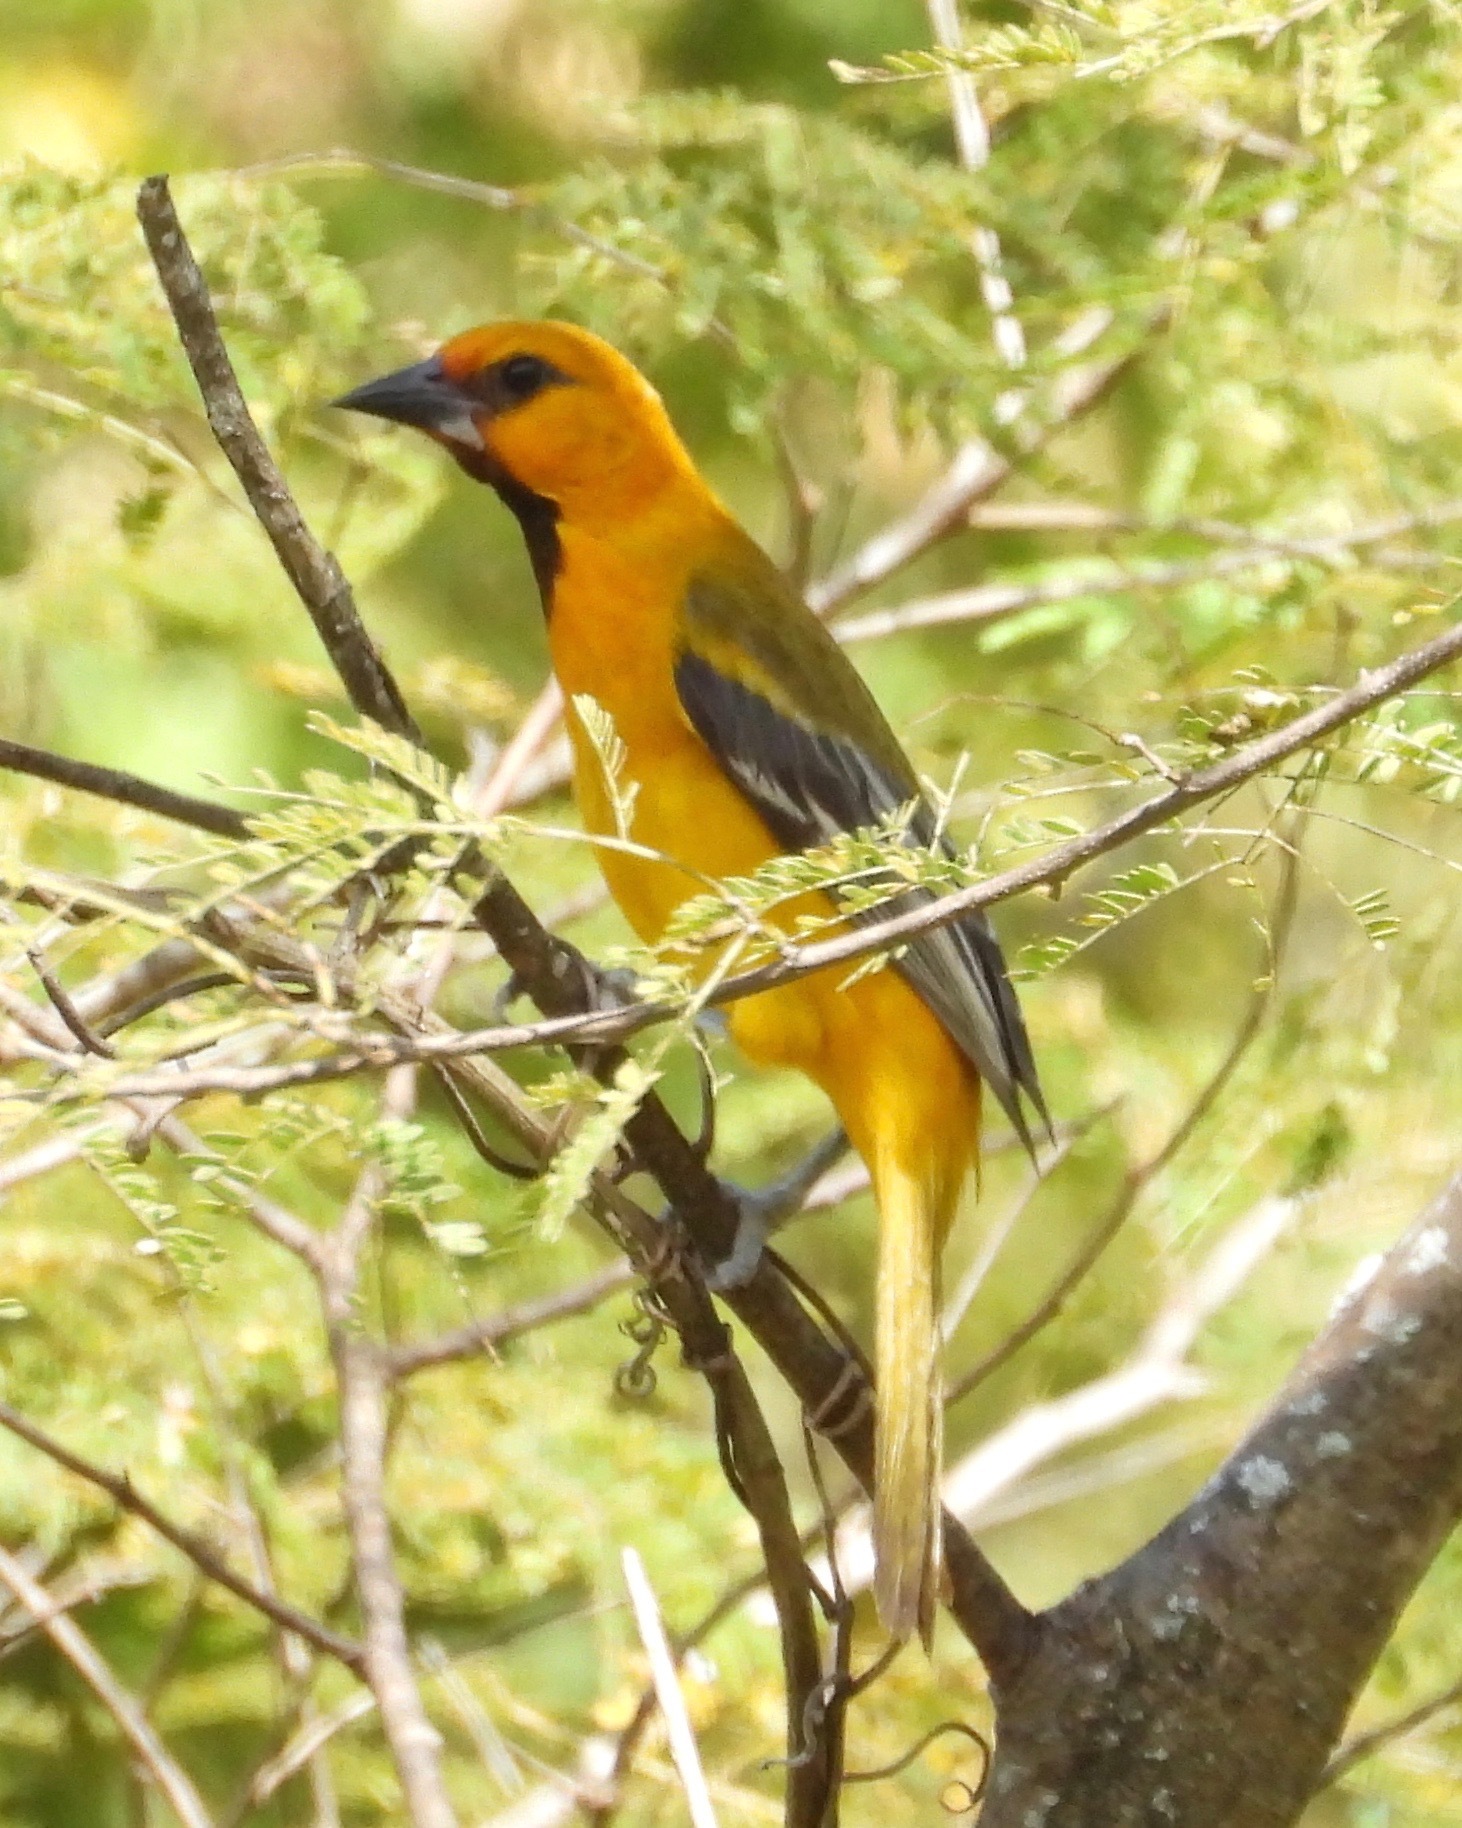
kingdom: Animalia
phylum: Chordata
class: Aves
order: Passeriformes
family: Icteridae
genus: Icterus
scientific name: Icterus gularis
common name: Altamira oriole
